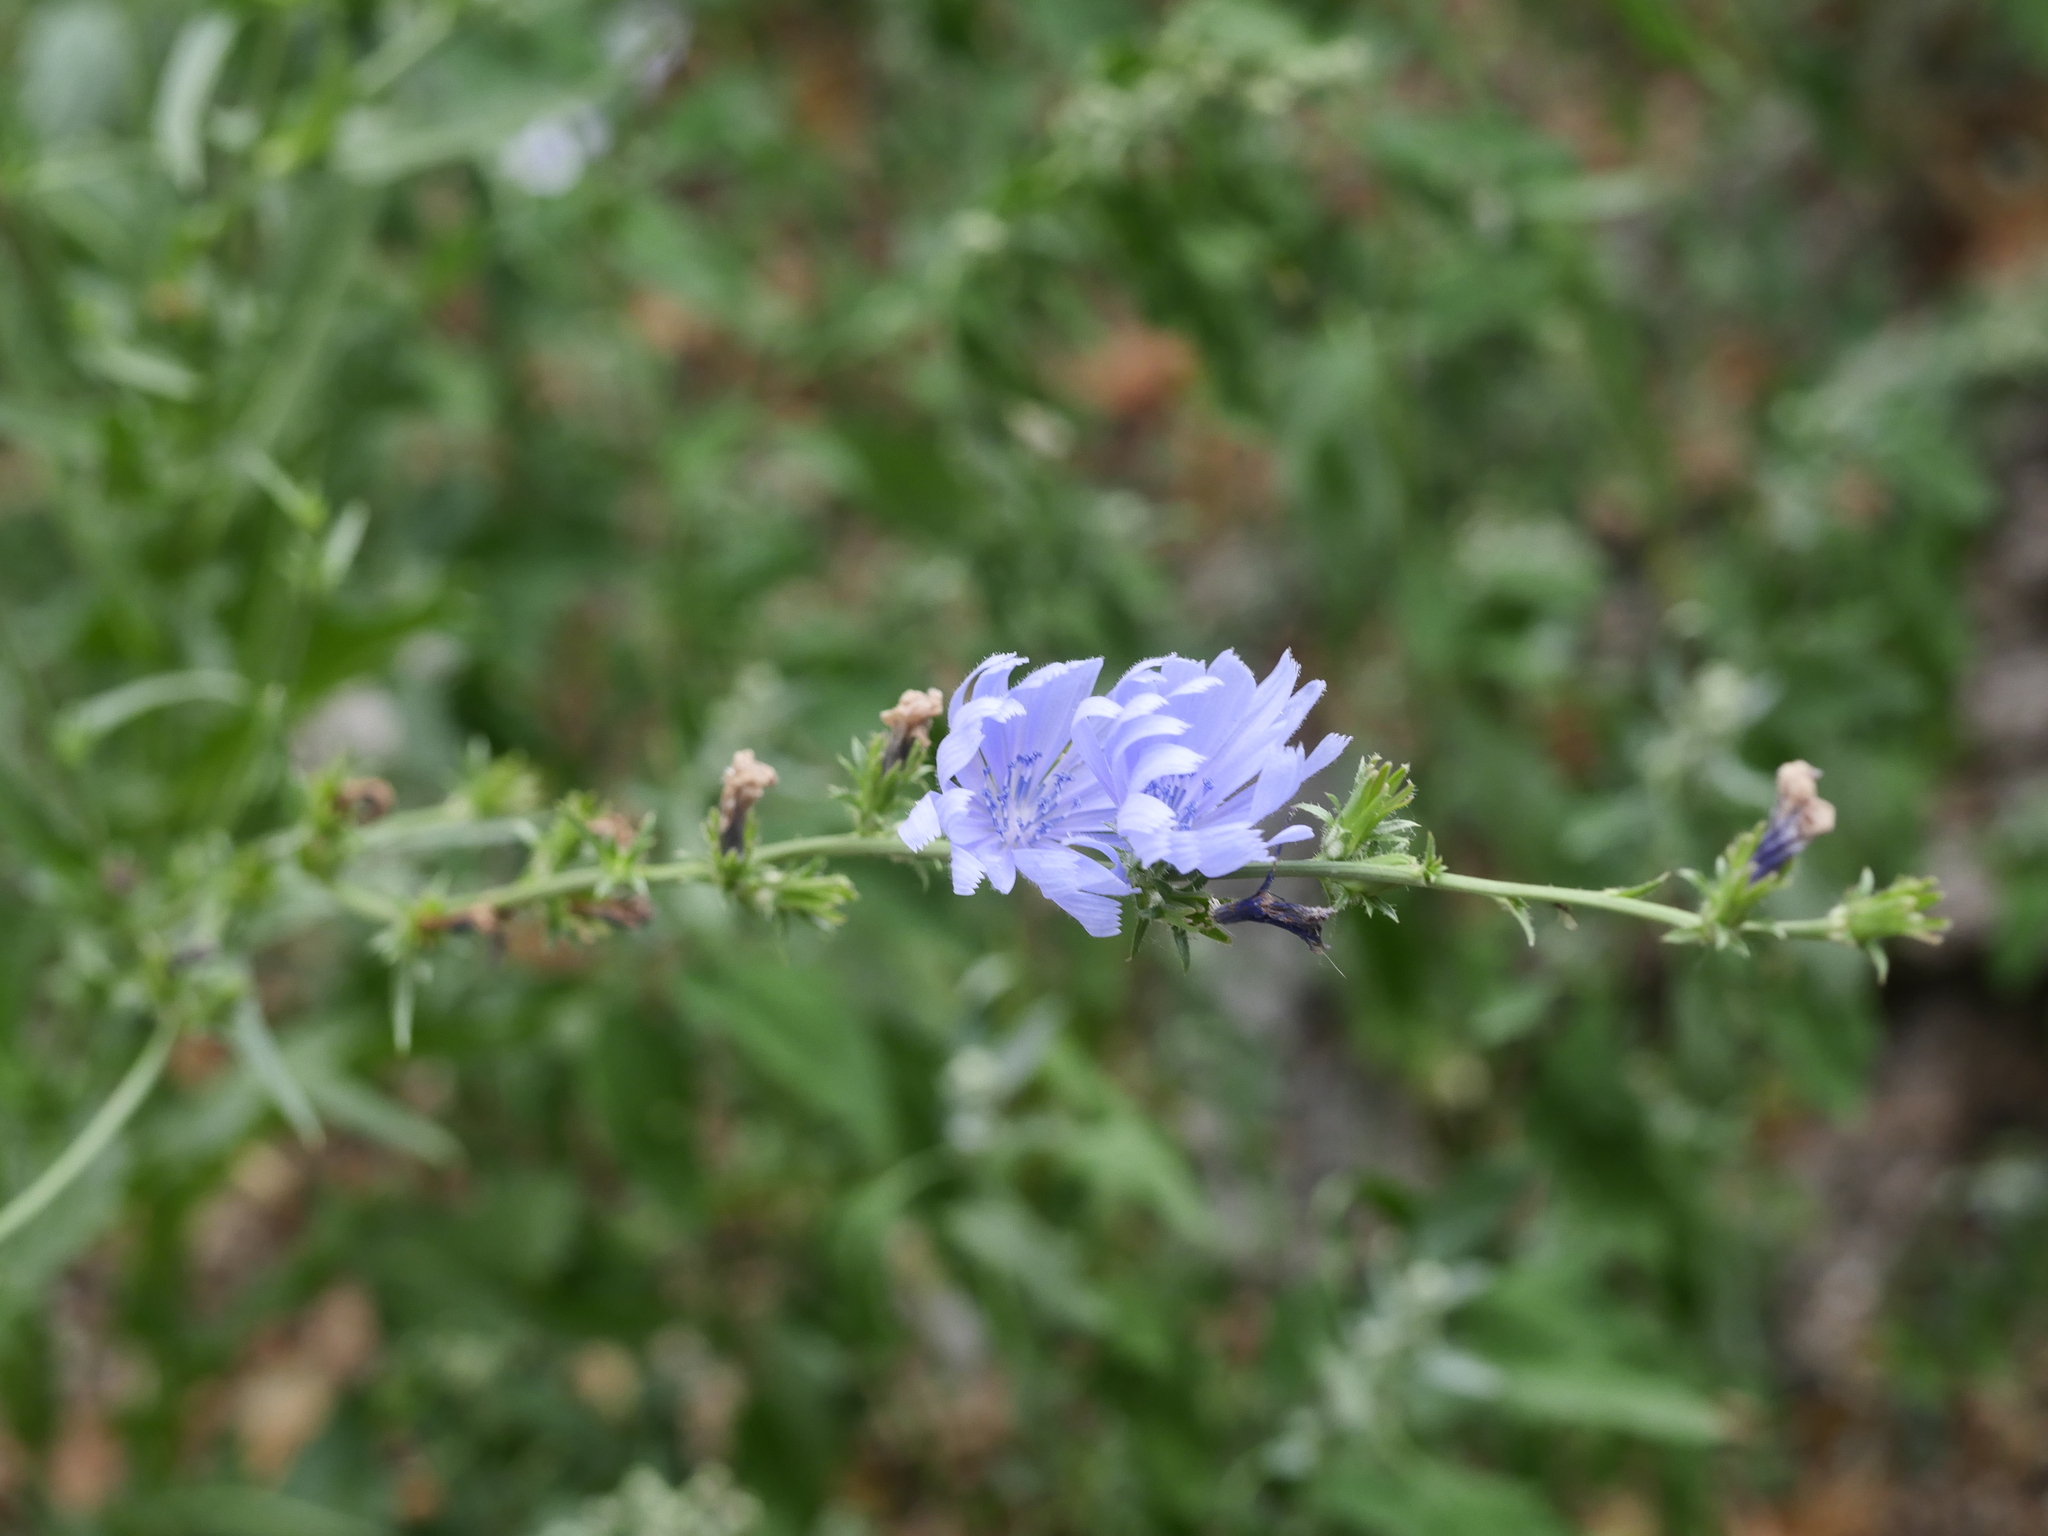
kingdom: Plantae
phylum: Tracheophyta
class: Magnoliopsida
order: Asterales
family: Asteraceae
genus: Cichorium
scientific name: Cichorium intybus
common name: Chicory
